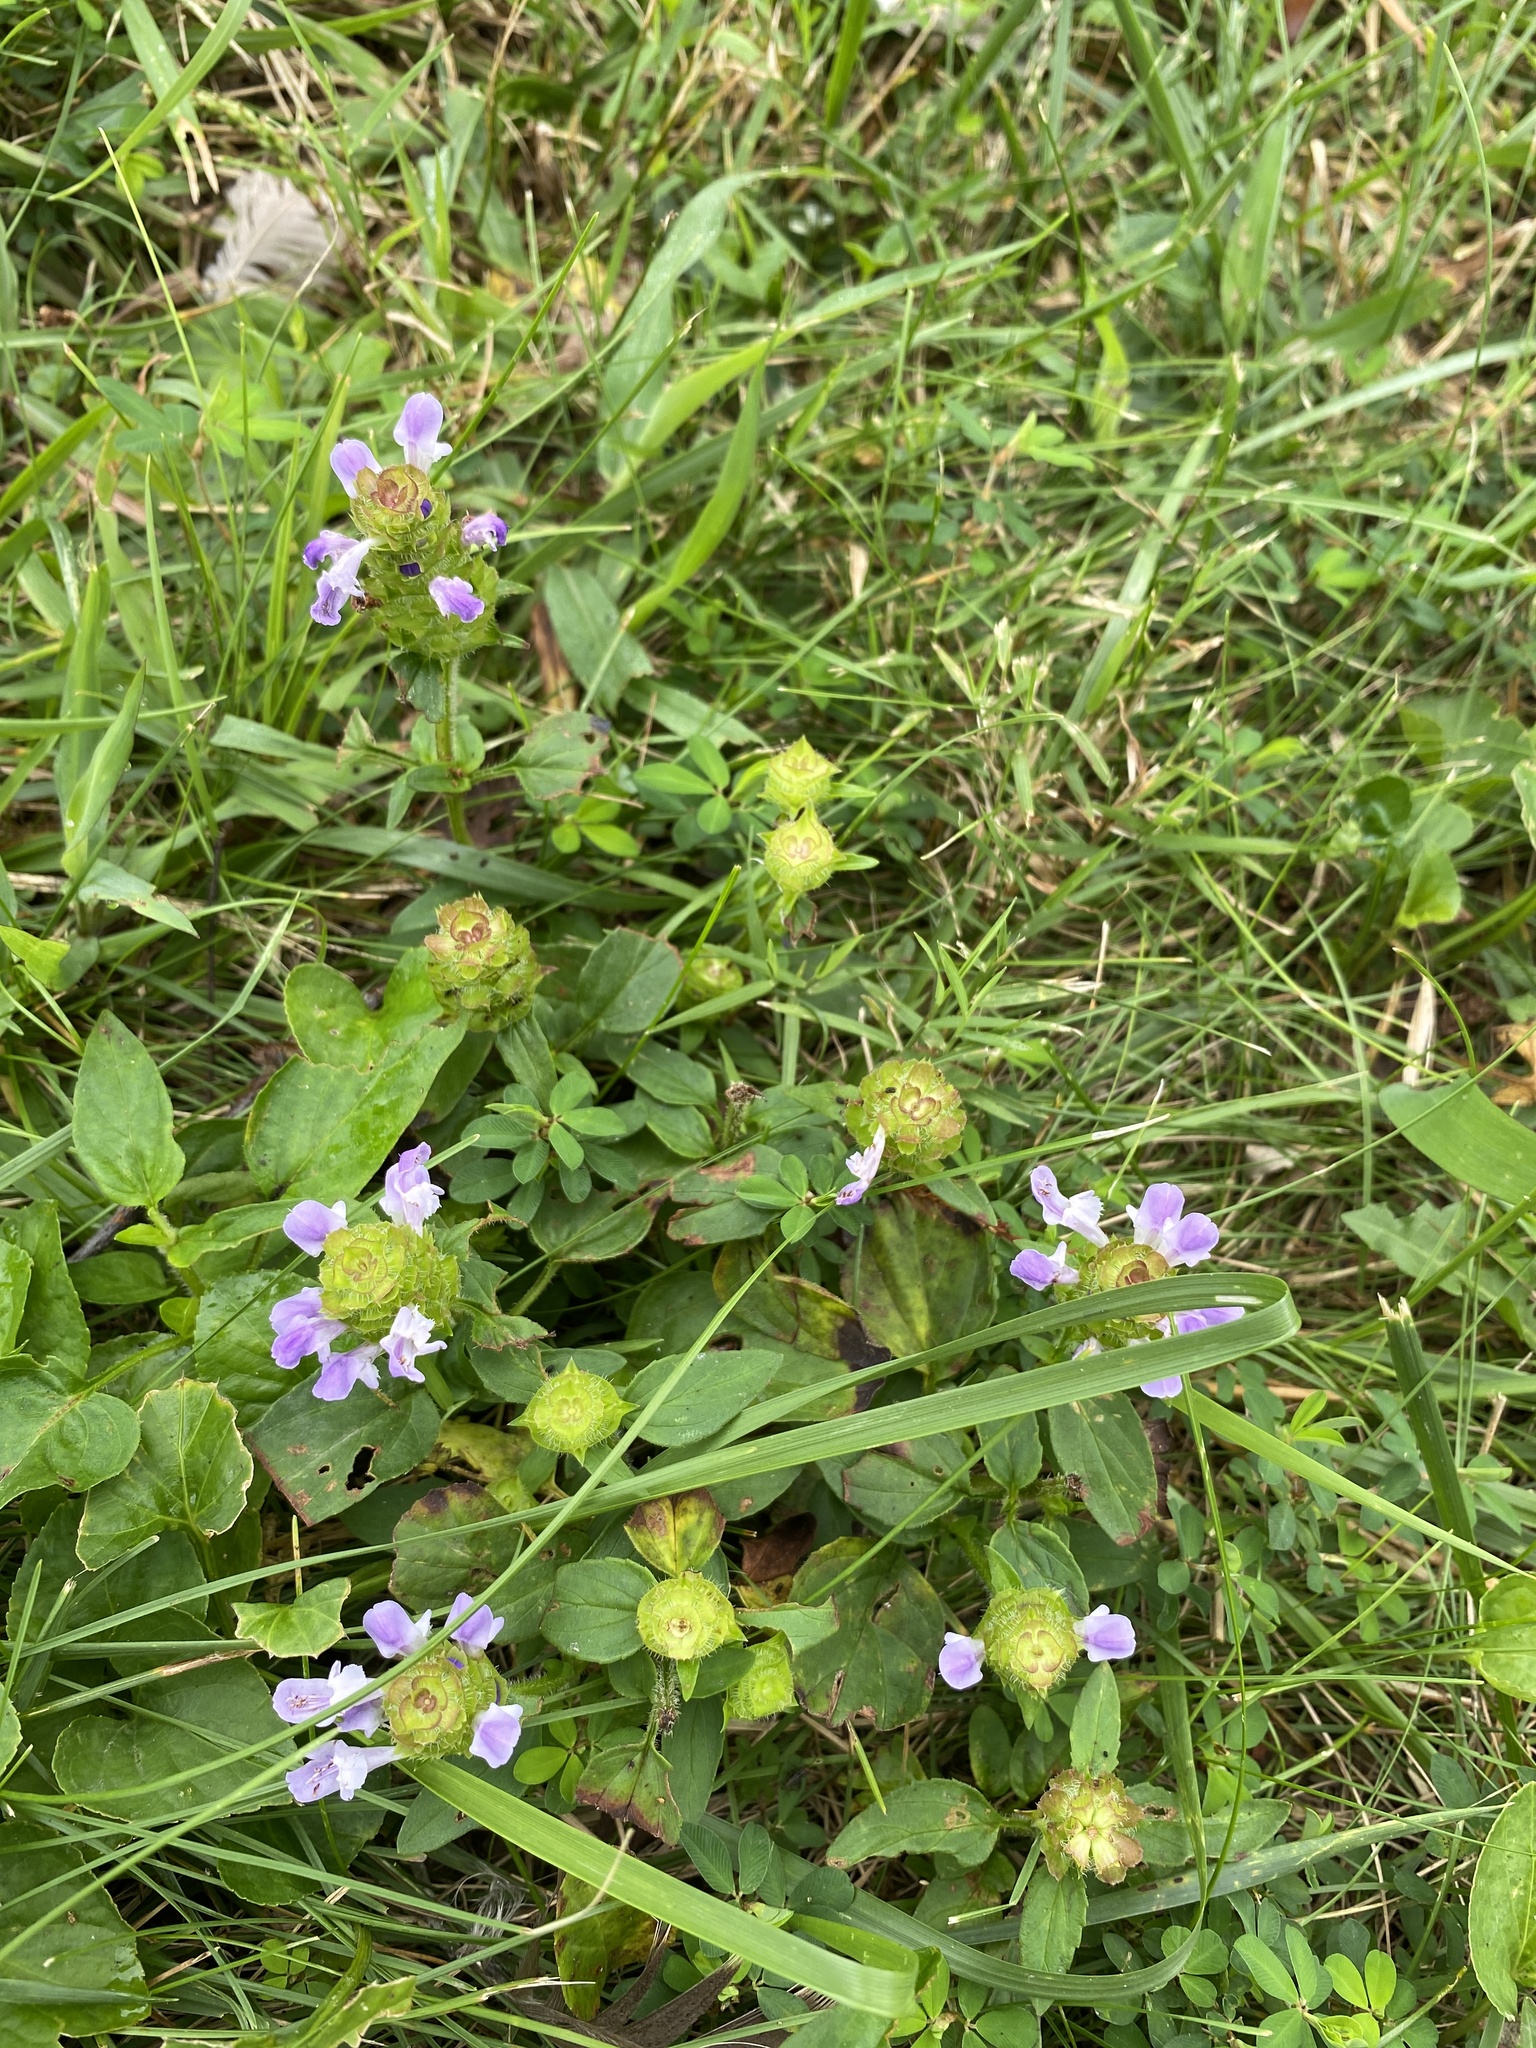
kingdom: Plantae
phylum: Tracheophyta
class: Magnoliopsida
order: Lamiales
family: Lamiaceae
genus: Prunella
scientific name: Prunella vulgaris
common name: Heal-all
